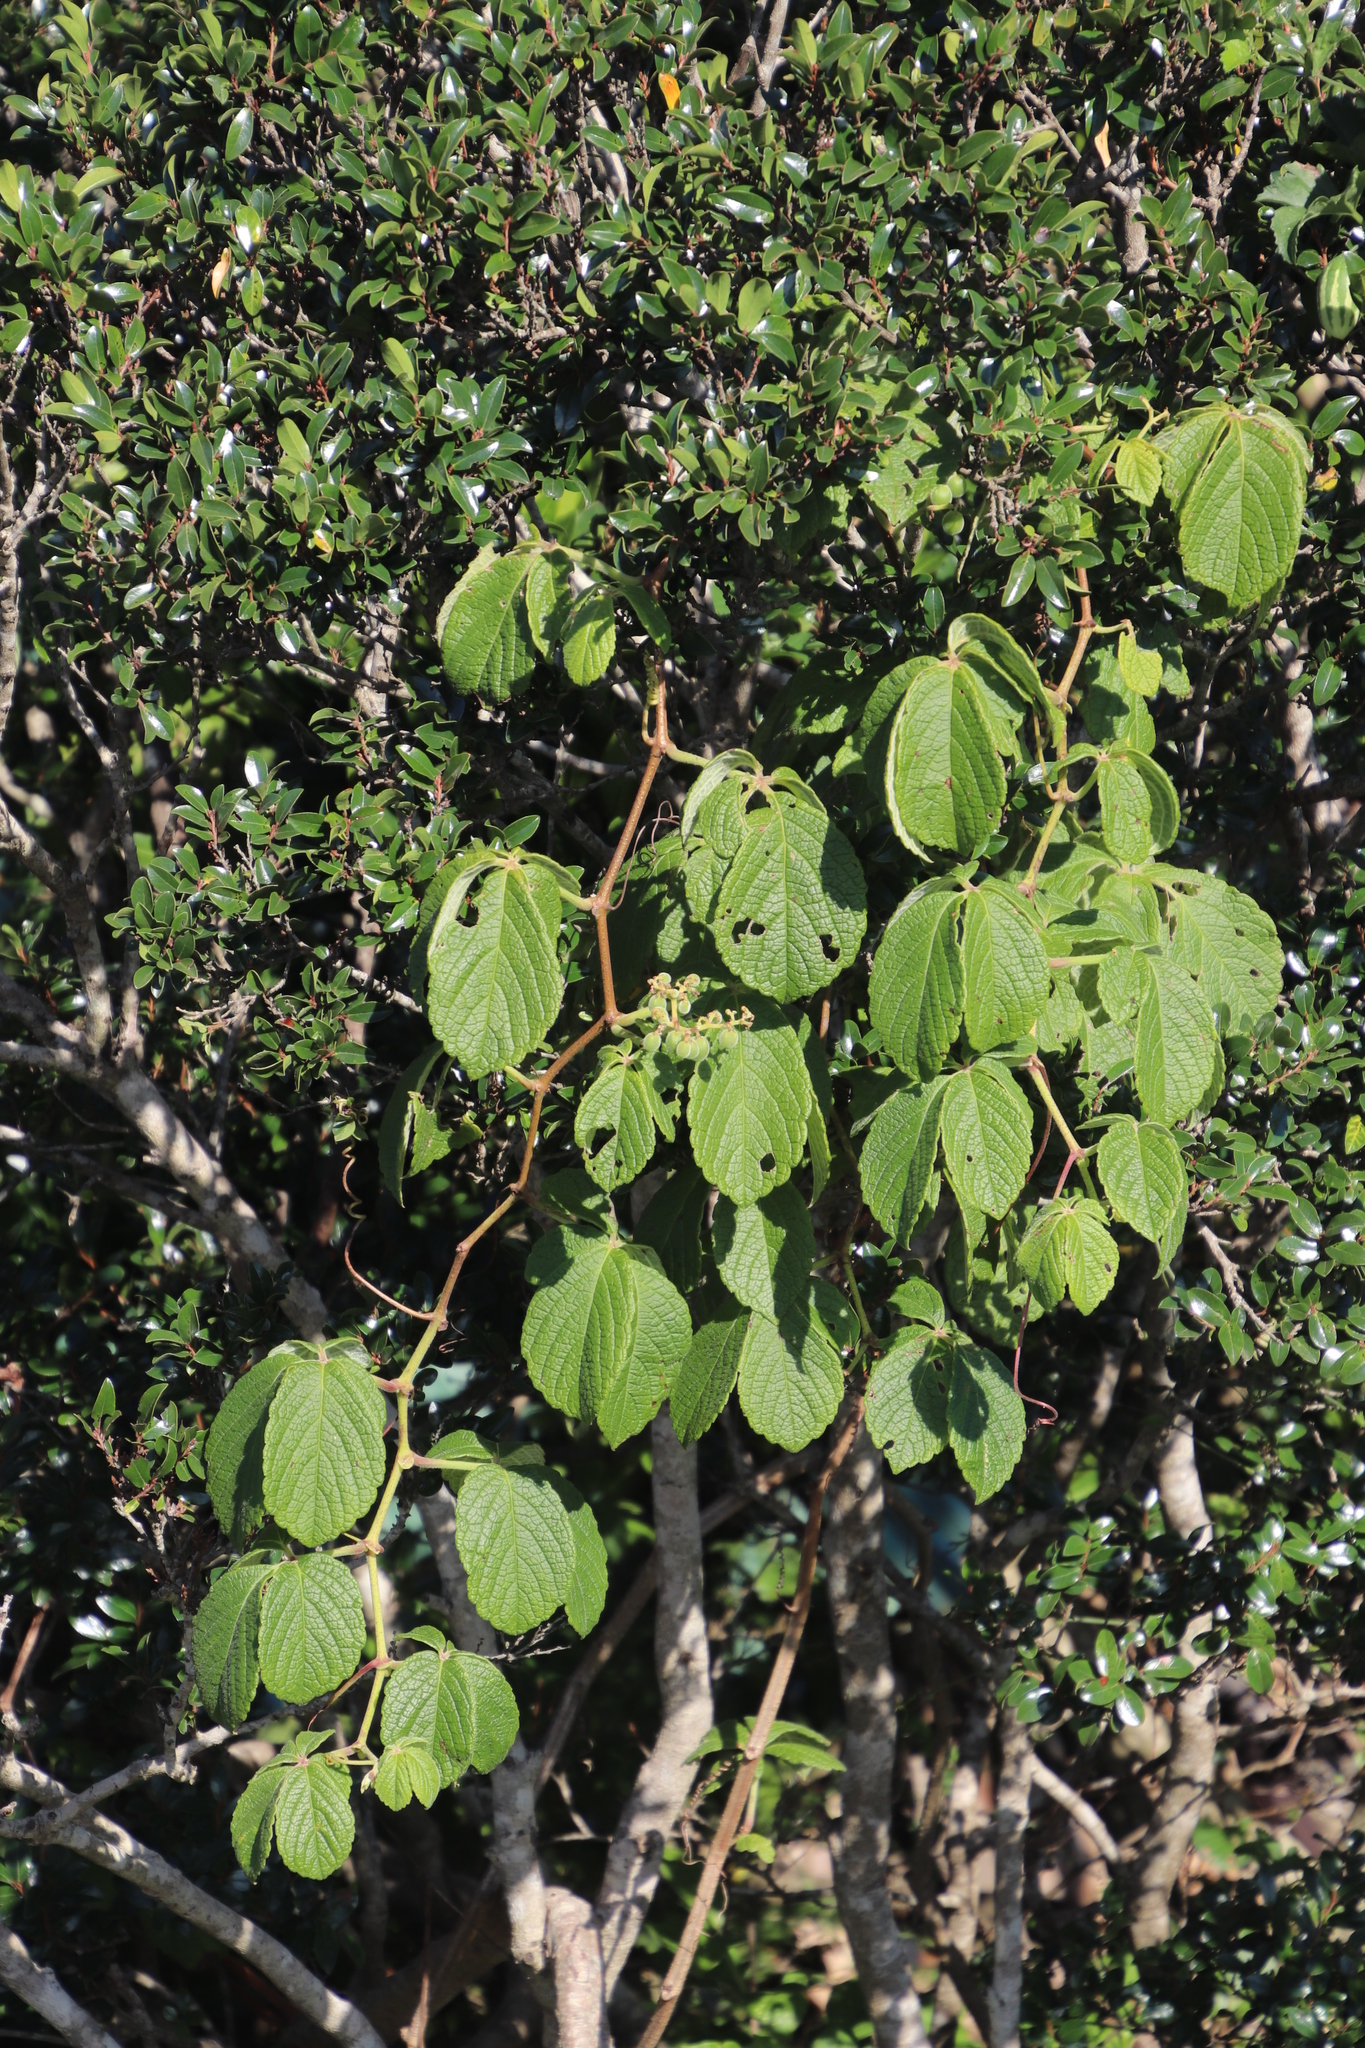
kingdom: Plantae
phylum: Tracheophyta
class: Magnoliopsida
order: Vitales
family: Vitaceae
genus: Cyphostemma
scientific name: Cyphostemma hypoleucum
